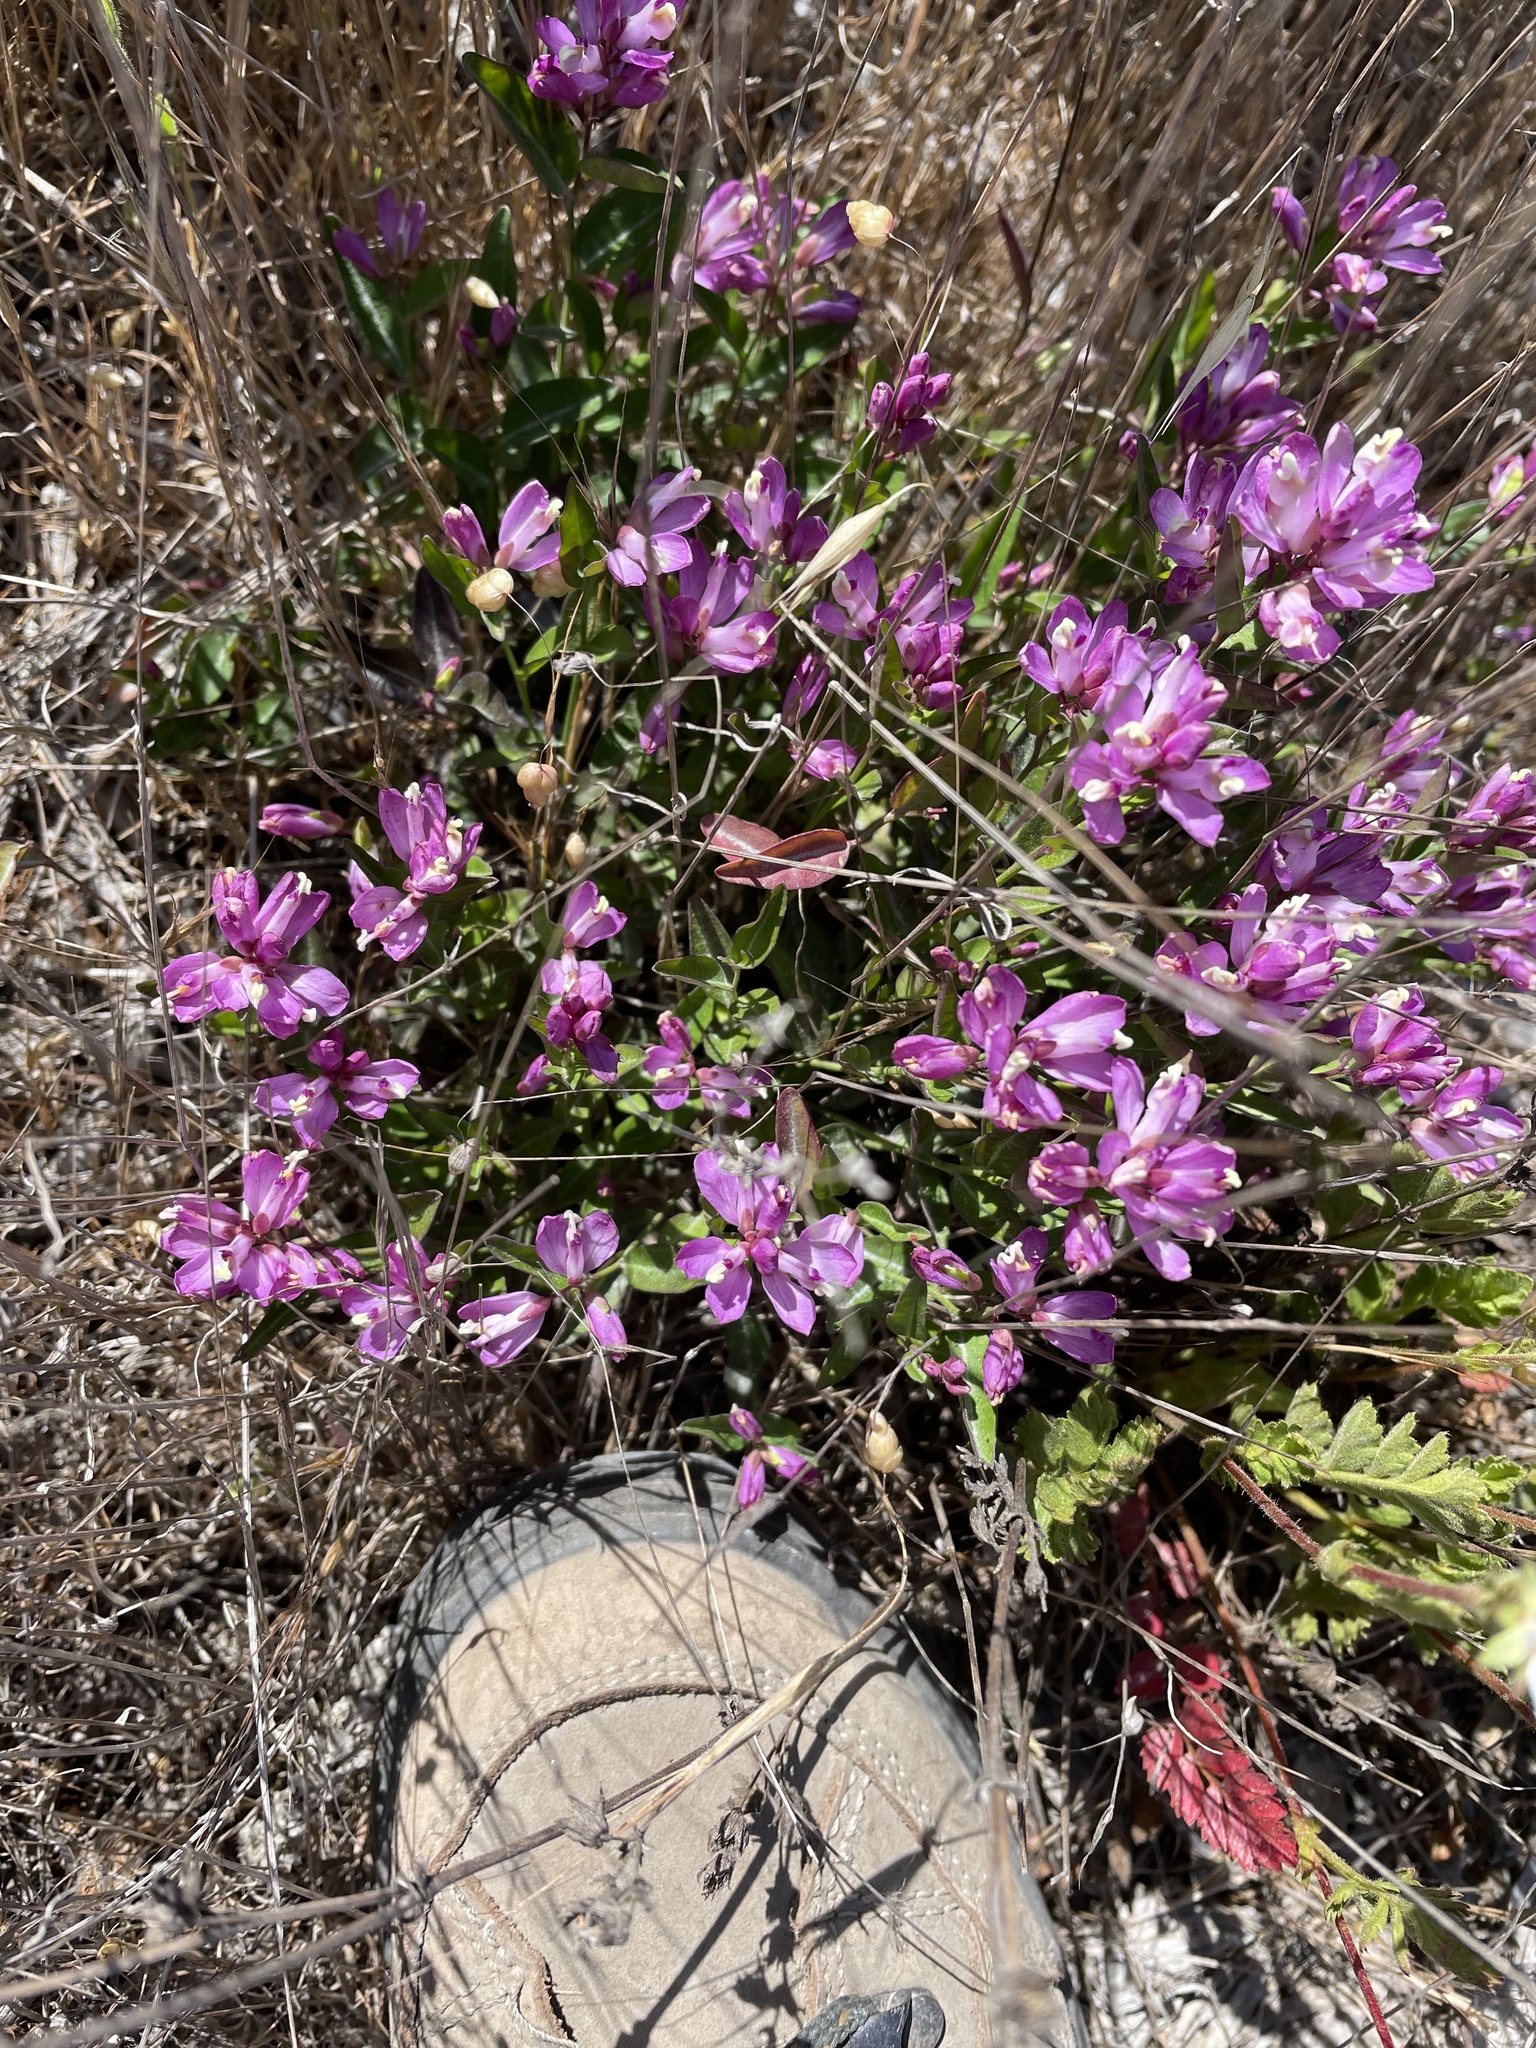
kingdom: Plantae
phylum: Tracheophyta
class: Magnoliopsida
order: Fabales
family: Polygalaceae
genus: Rhinotropis
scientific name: Rhinotropis californica
